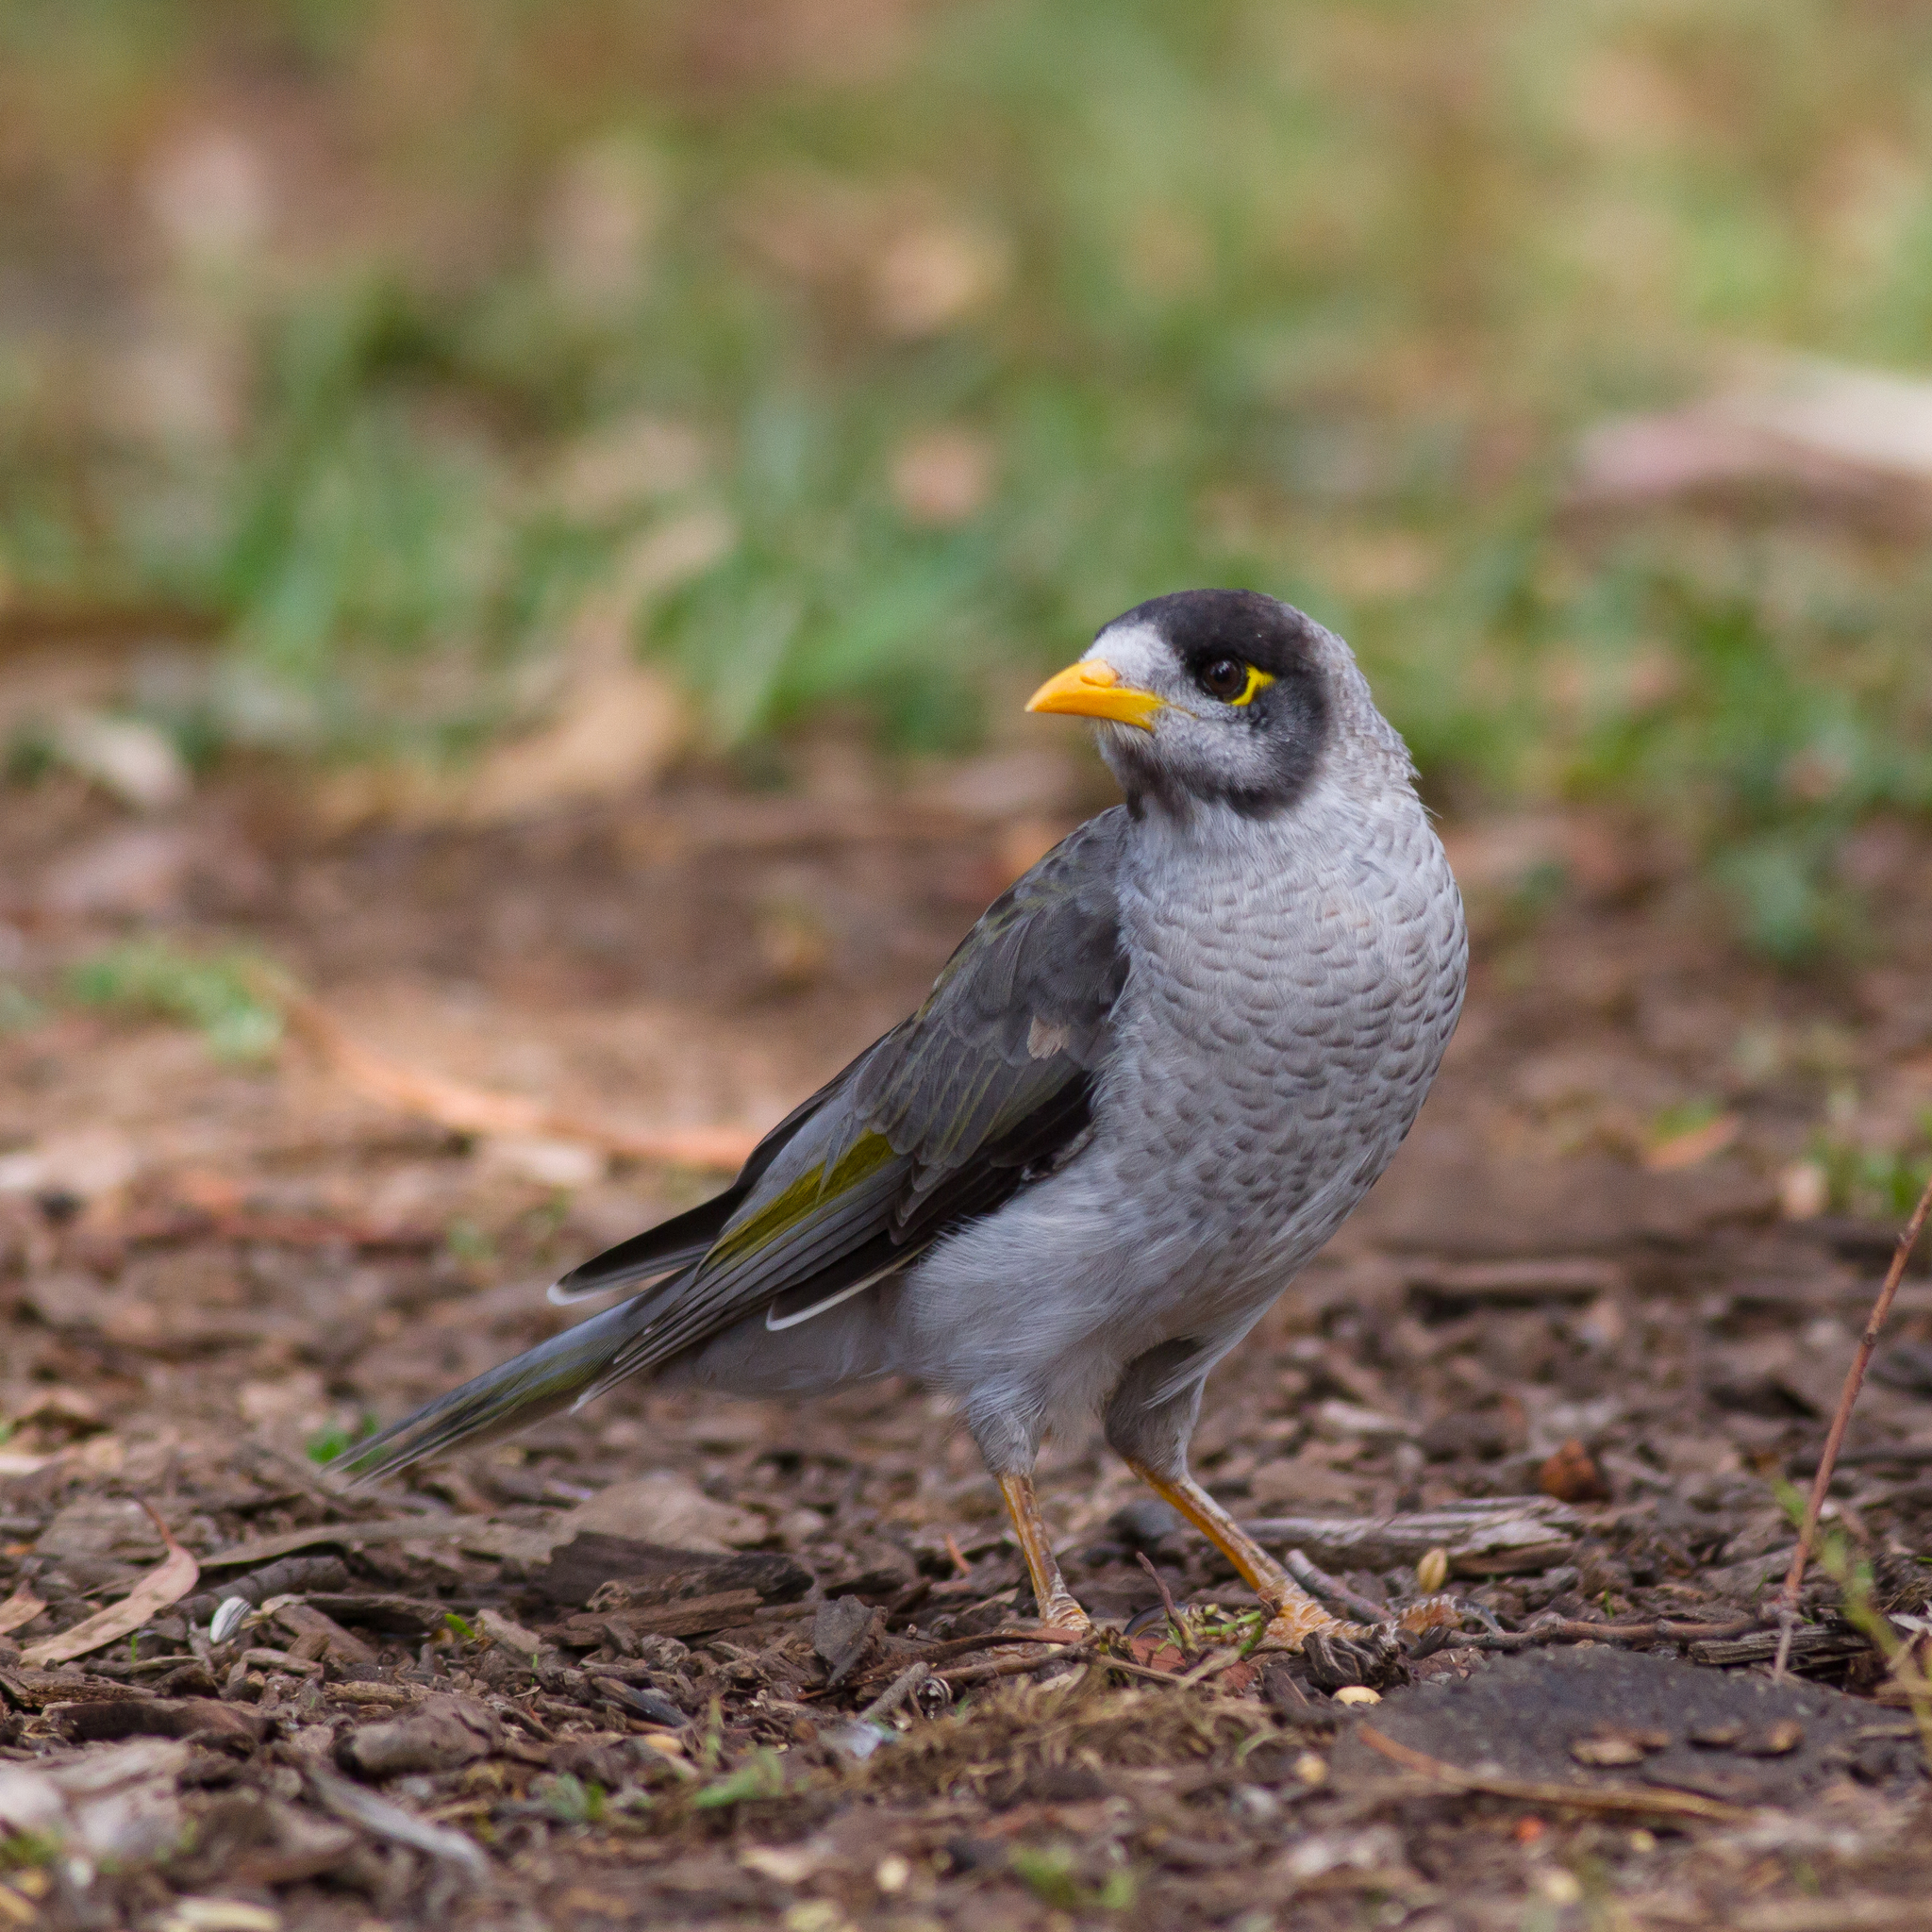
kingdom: Animalia
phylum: Chordata
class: Aves
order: Passeriformes
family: Meliphagidae
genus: Manorina
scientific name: Manorina melanocephala
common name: Noisy miner
